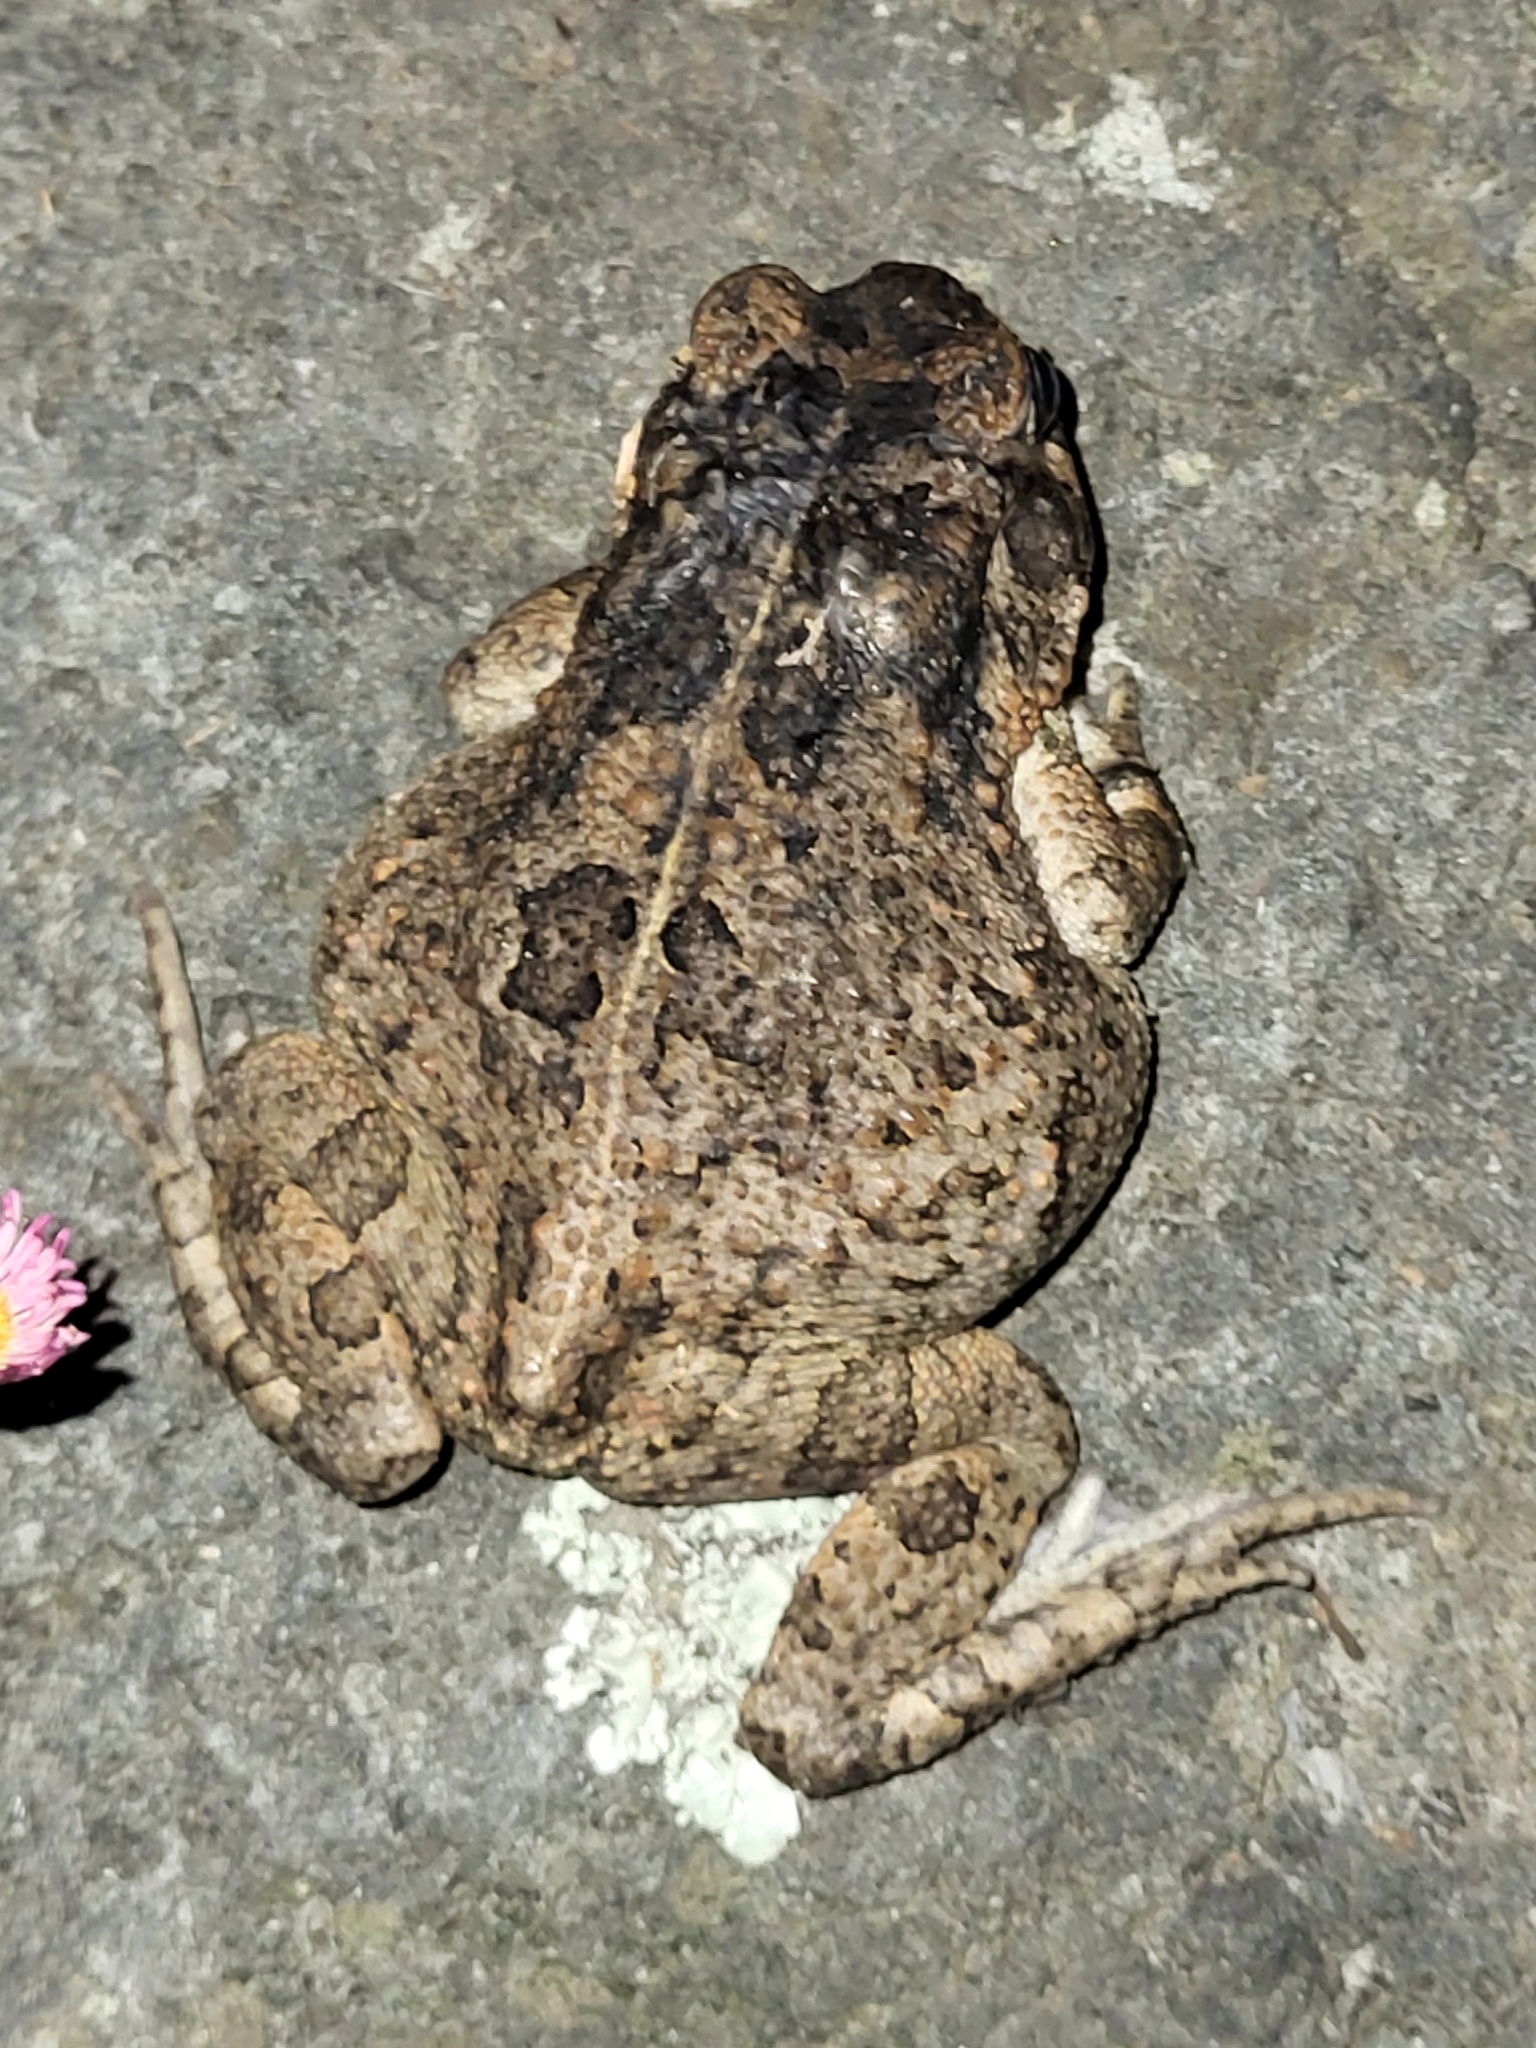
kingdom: Animalia
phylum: Chordata
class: Amphibia
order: Anura
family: Bufonidae
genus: Sclerophrys
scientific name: Sclerophrys gutturalis
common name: African common toad
